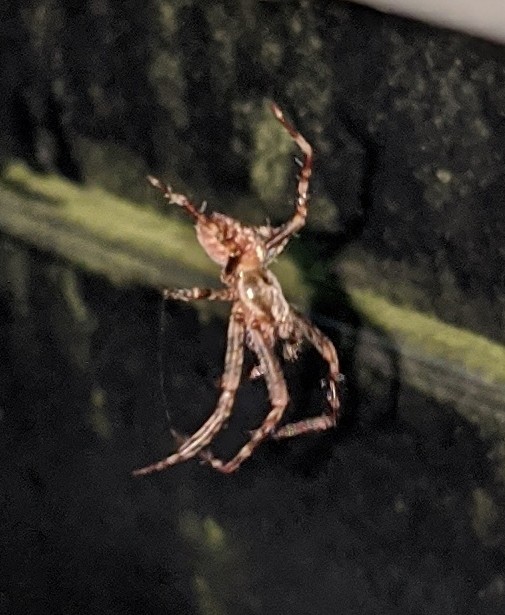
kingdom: Animalia
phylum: Arthropoda
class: Arachnida
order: Araneae
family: Araneidae
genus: Araneus
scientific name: Araneus diadematus
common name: Cross orbweaver
